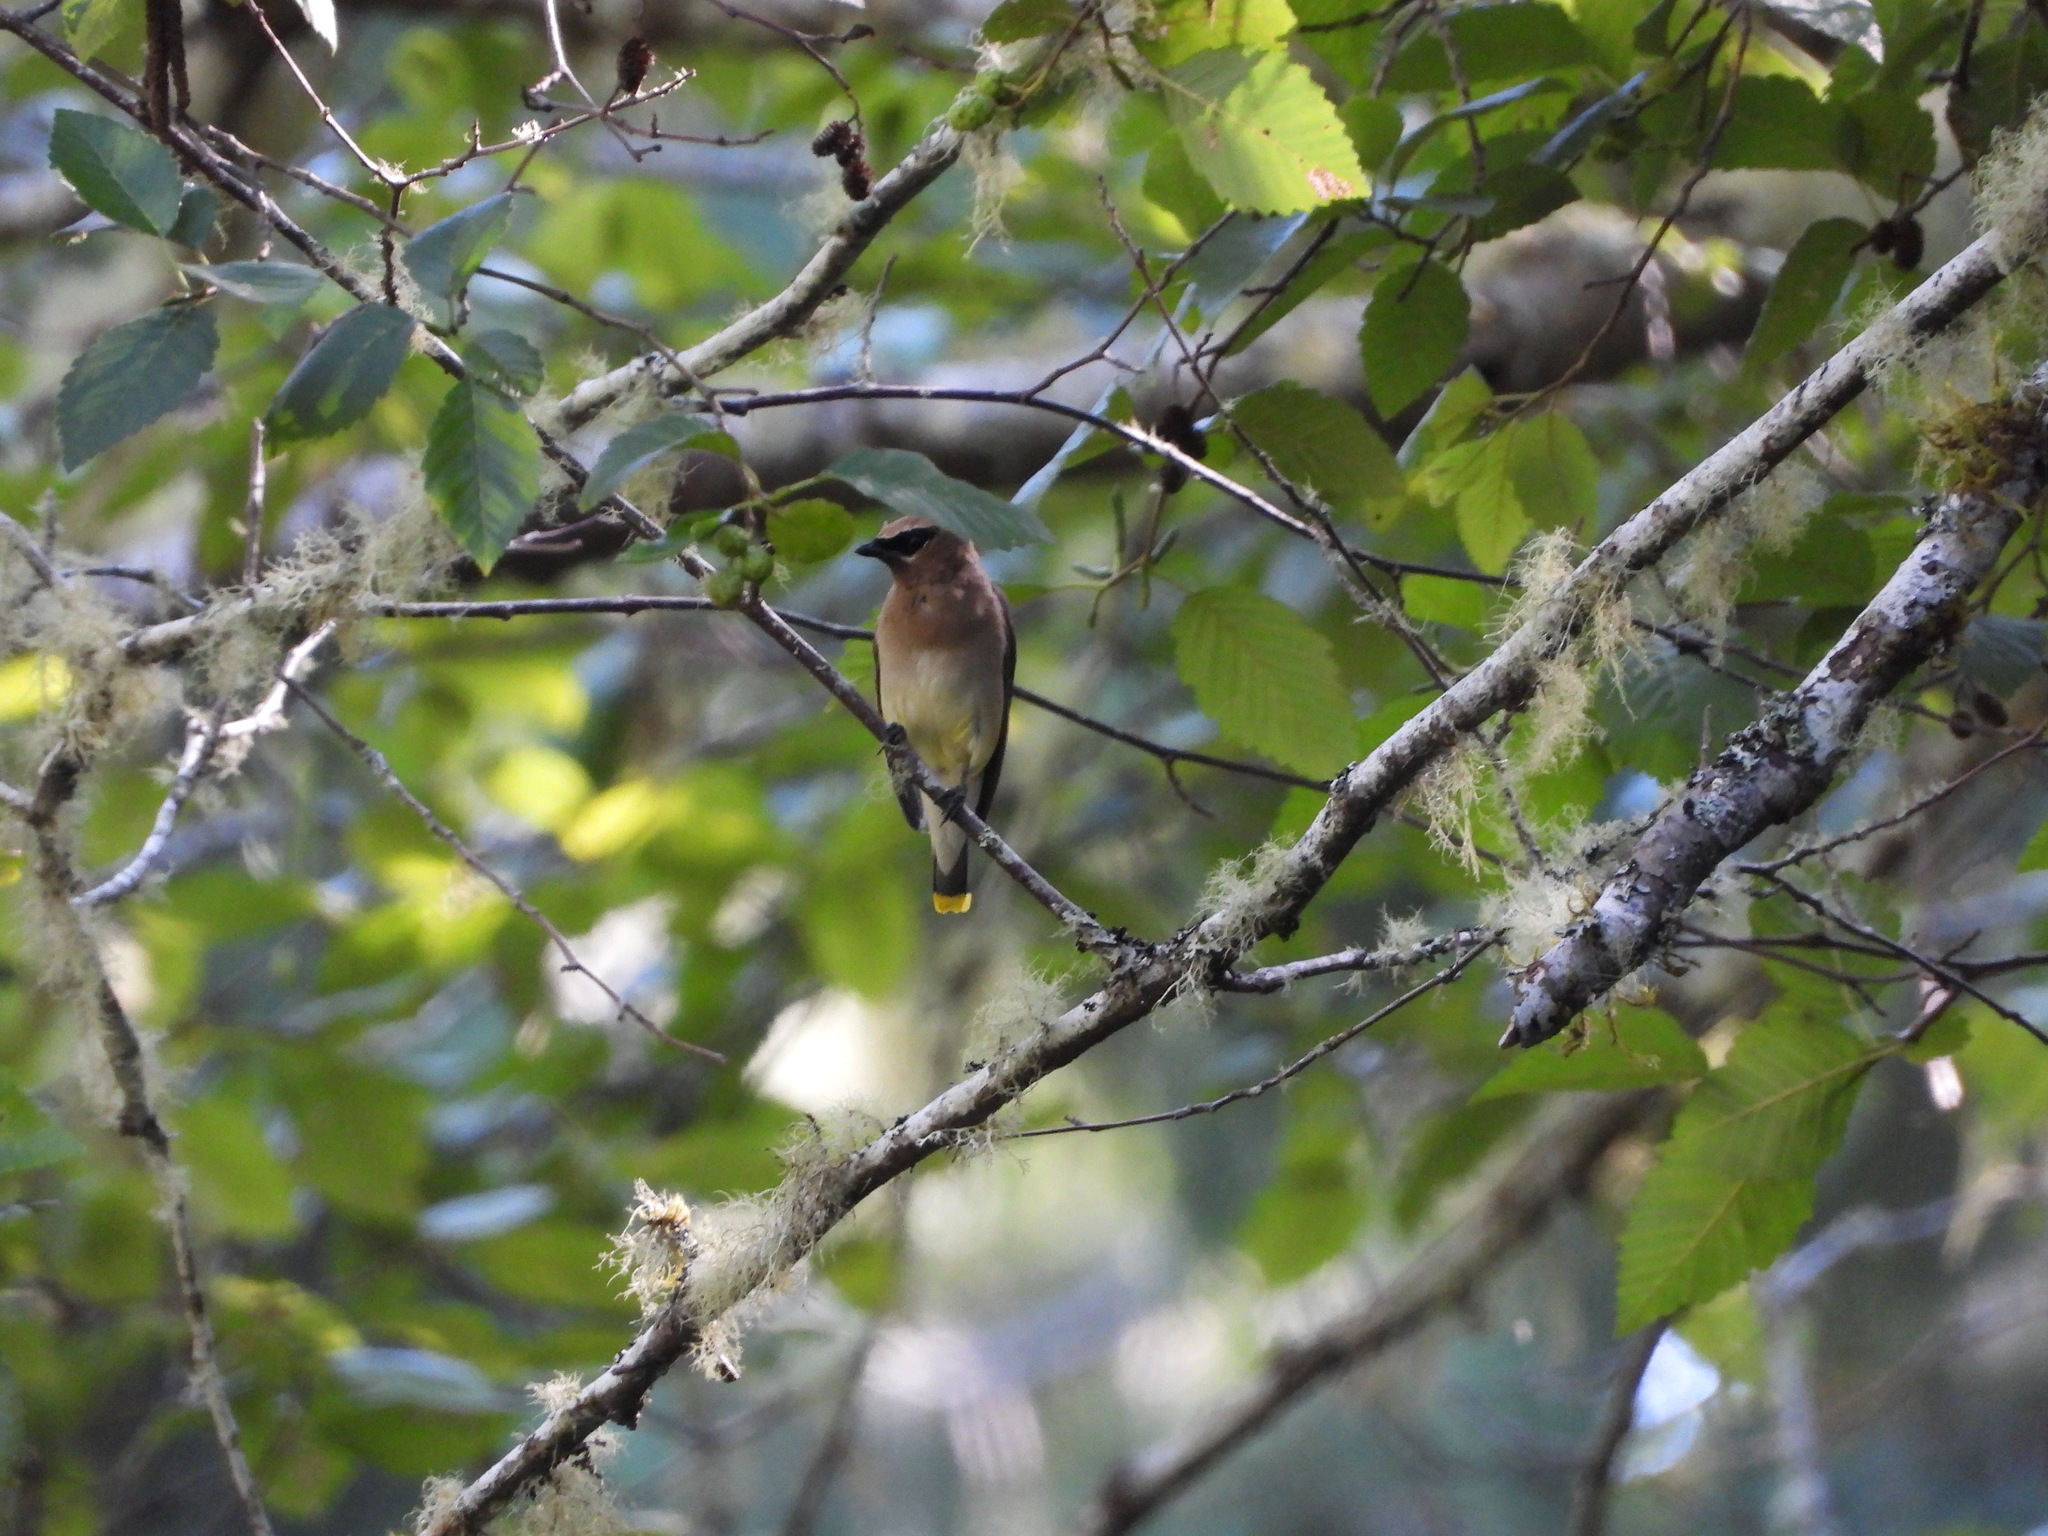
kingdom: Animalia
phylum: Chordata
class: Aves
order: Passeriformes
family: Bombycillidae
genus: Bombycilla
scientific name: Bombycilla cedrorum
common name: Cedar waxwing
